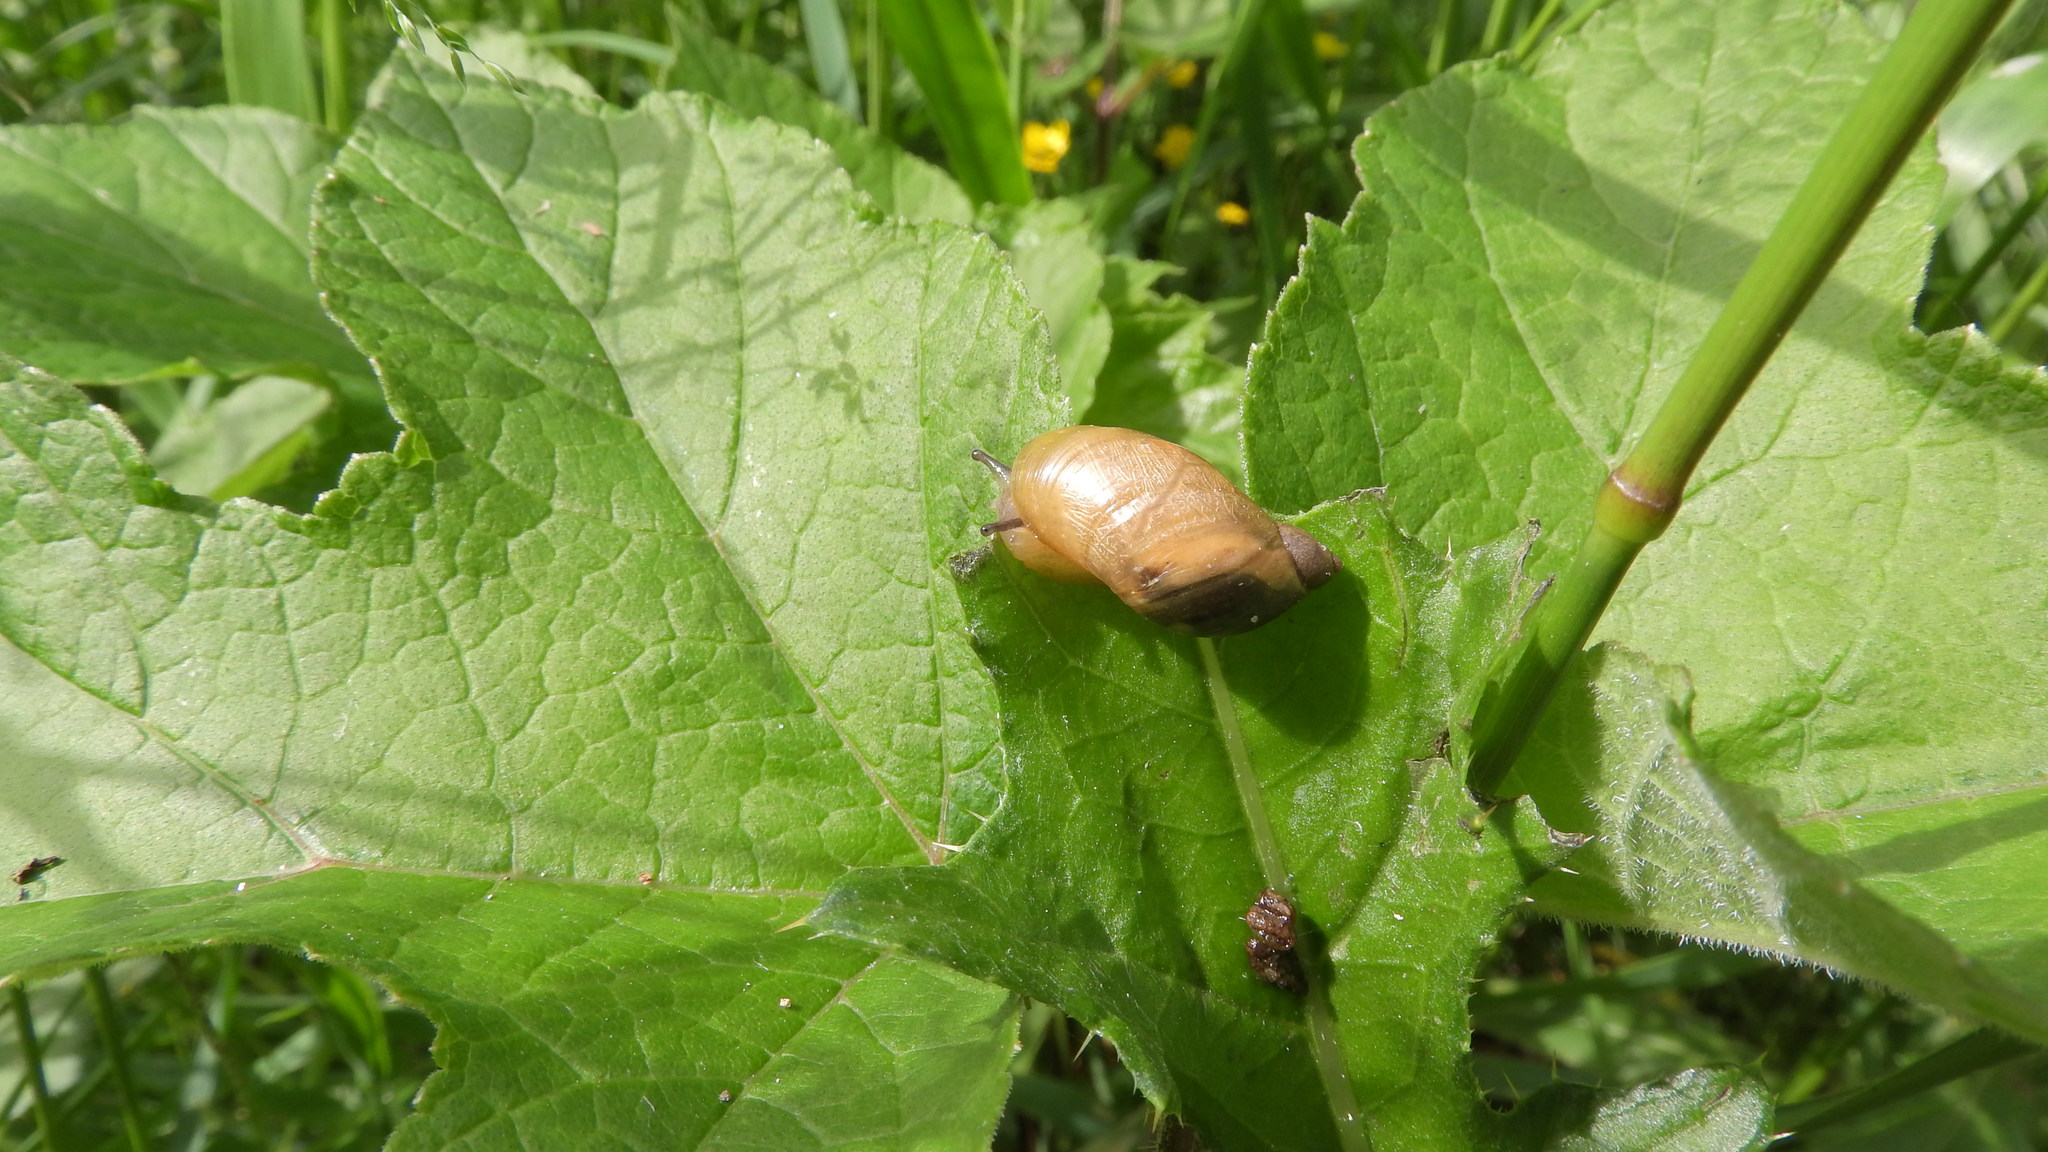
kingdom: Animalia
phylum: Mollusca
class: Gastropoda
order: Stylommatophora
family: Succineidae
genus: Succinea
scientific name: Succinea putris
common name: European ambersnail
